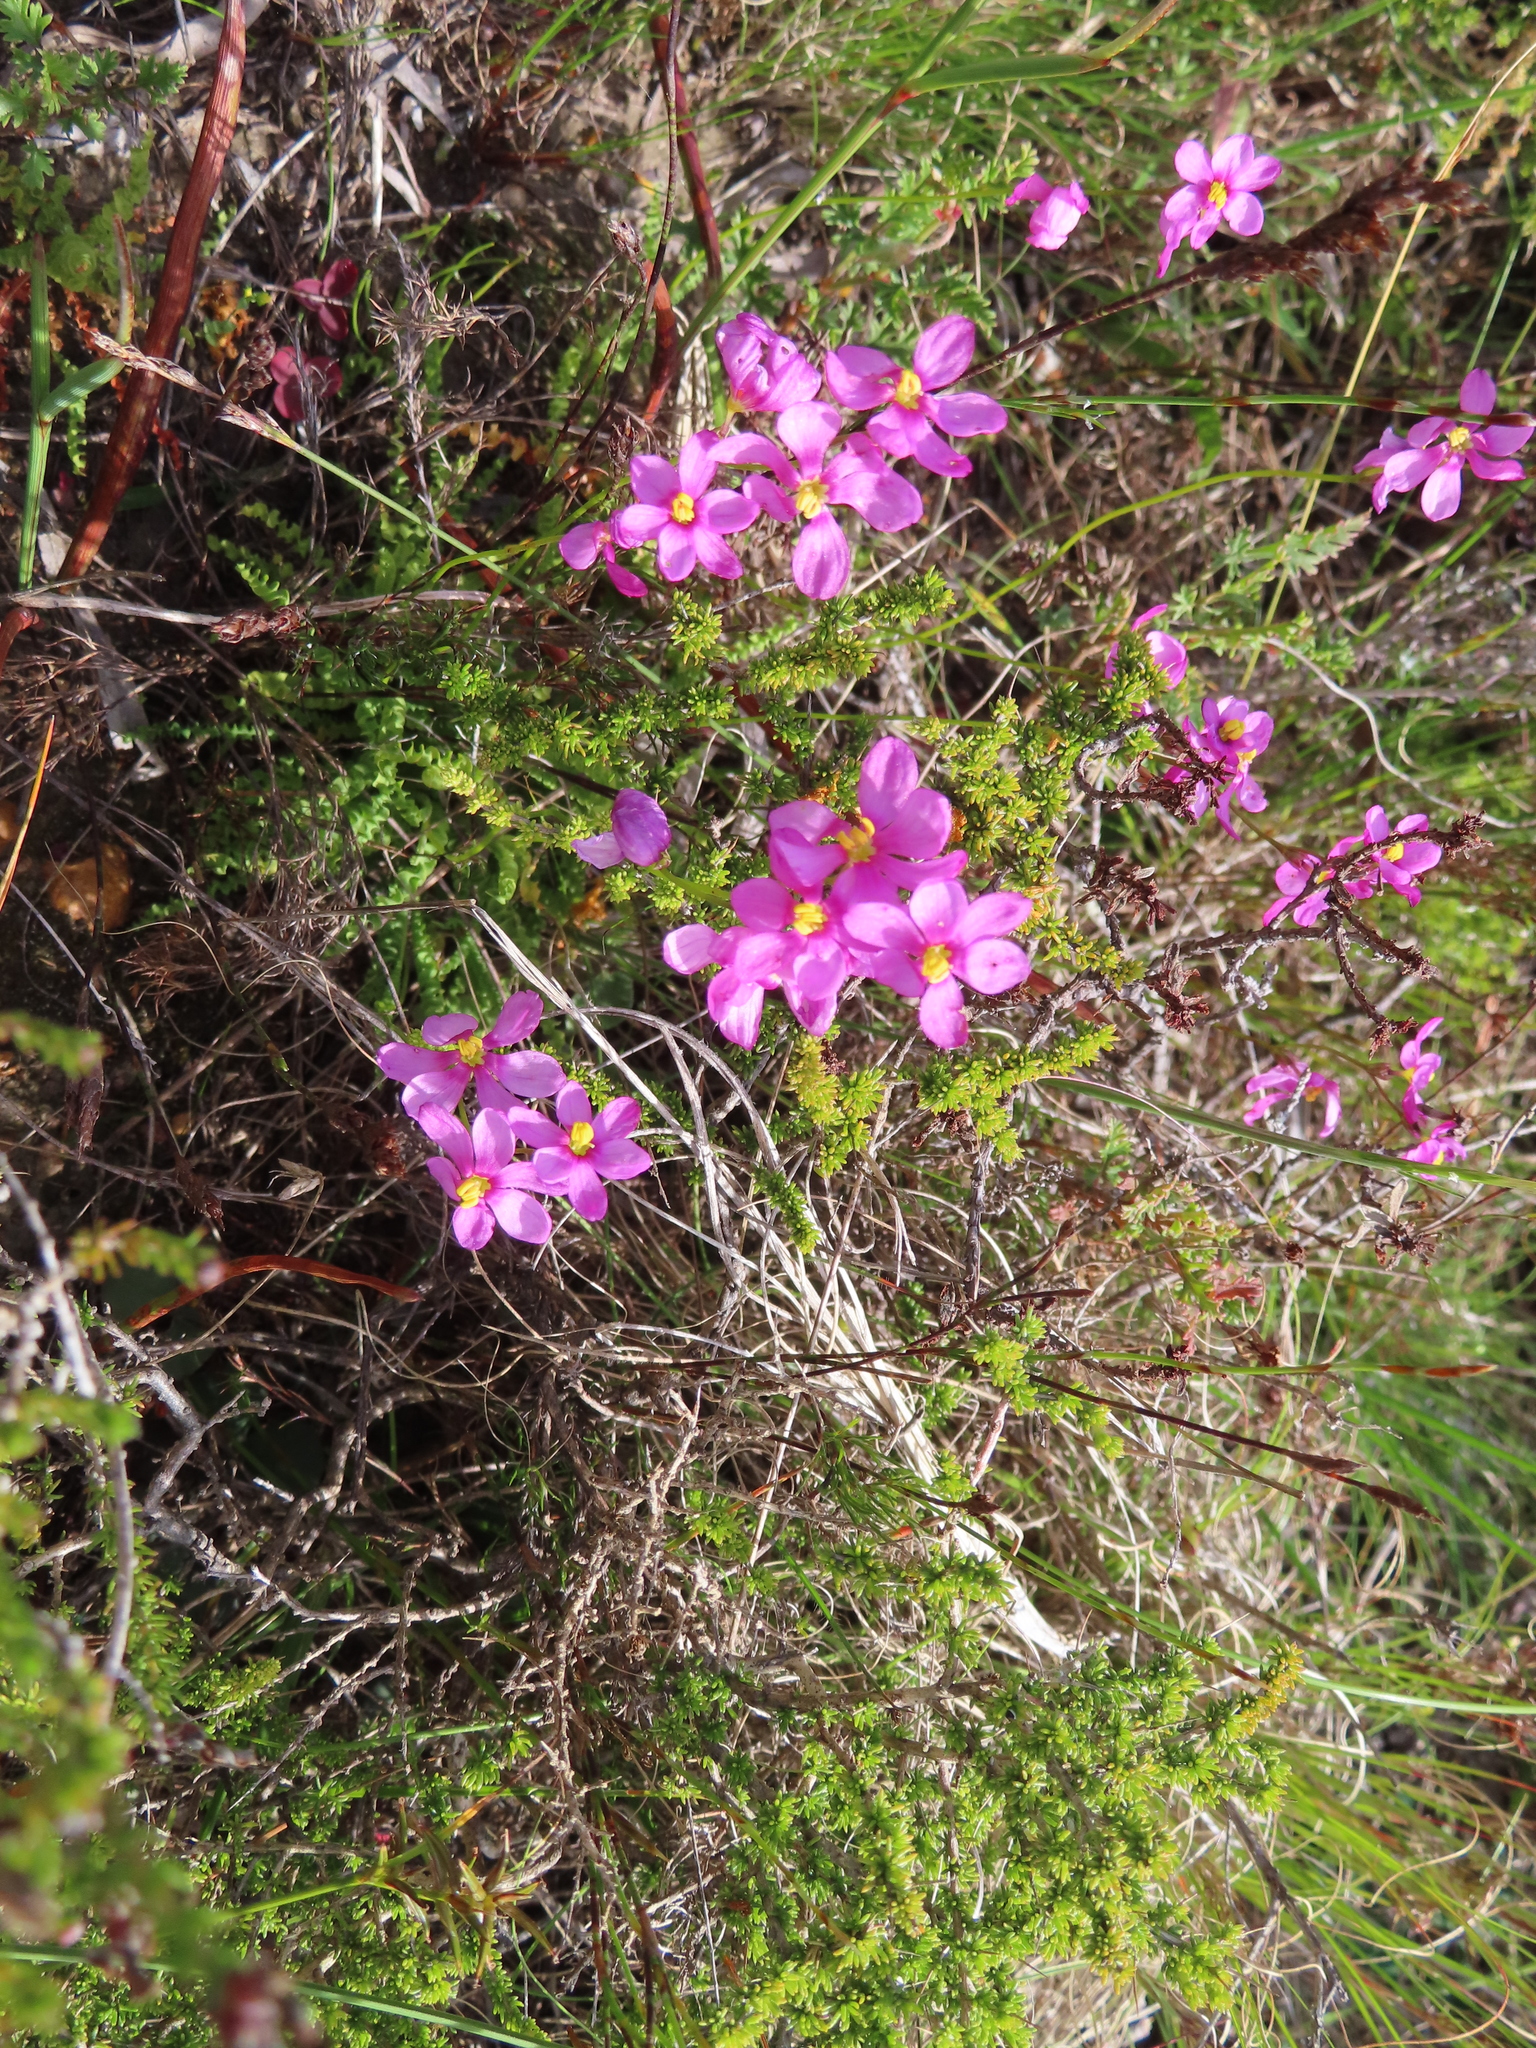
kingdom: Plantae
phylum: Tracheophyta
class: Liliopsida
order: Asparagales
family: Iridaceae
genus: Ixia
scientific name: Ixia erubescens
